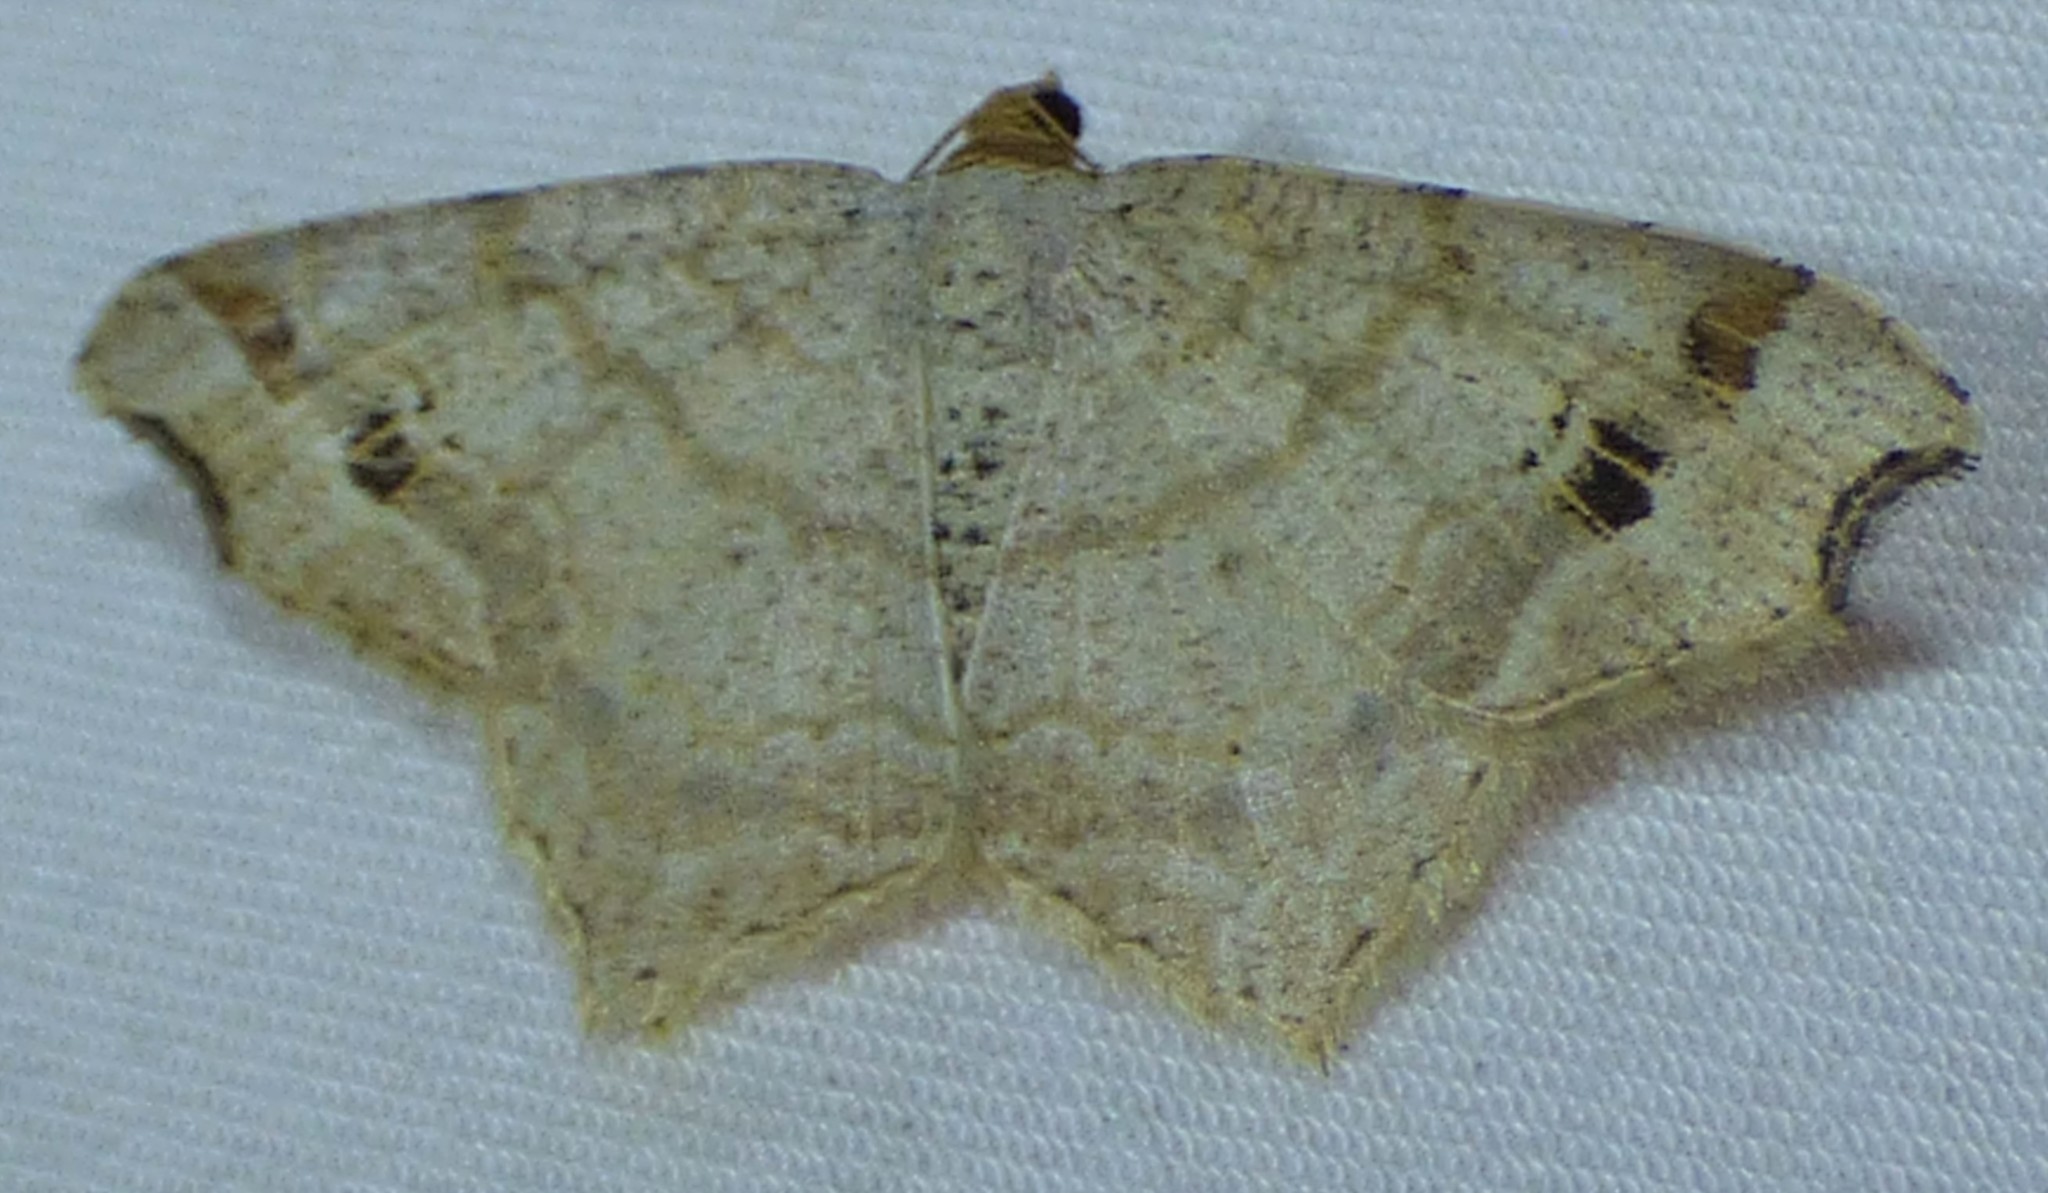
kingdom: Animalia
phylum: Arthropoda
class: Insecta
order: Lepidoptera
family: Geometridae
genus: Macaria
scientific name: Macaria aemulataria
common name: Common angle
